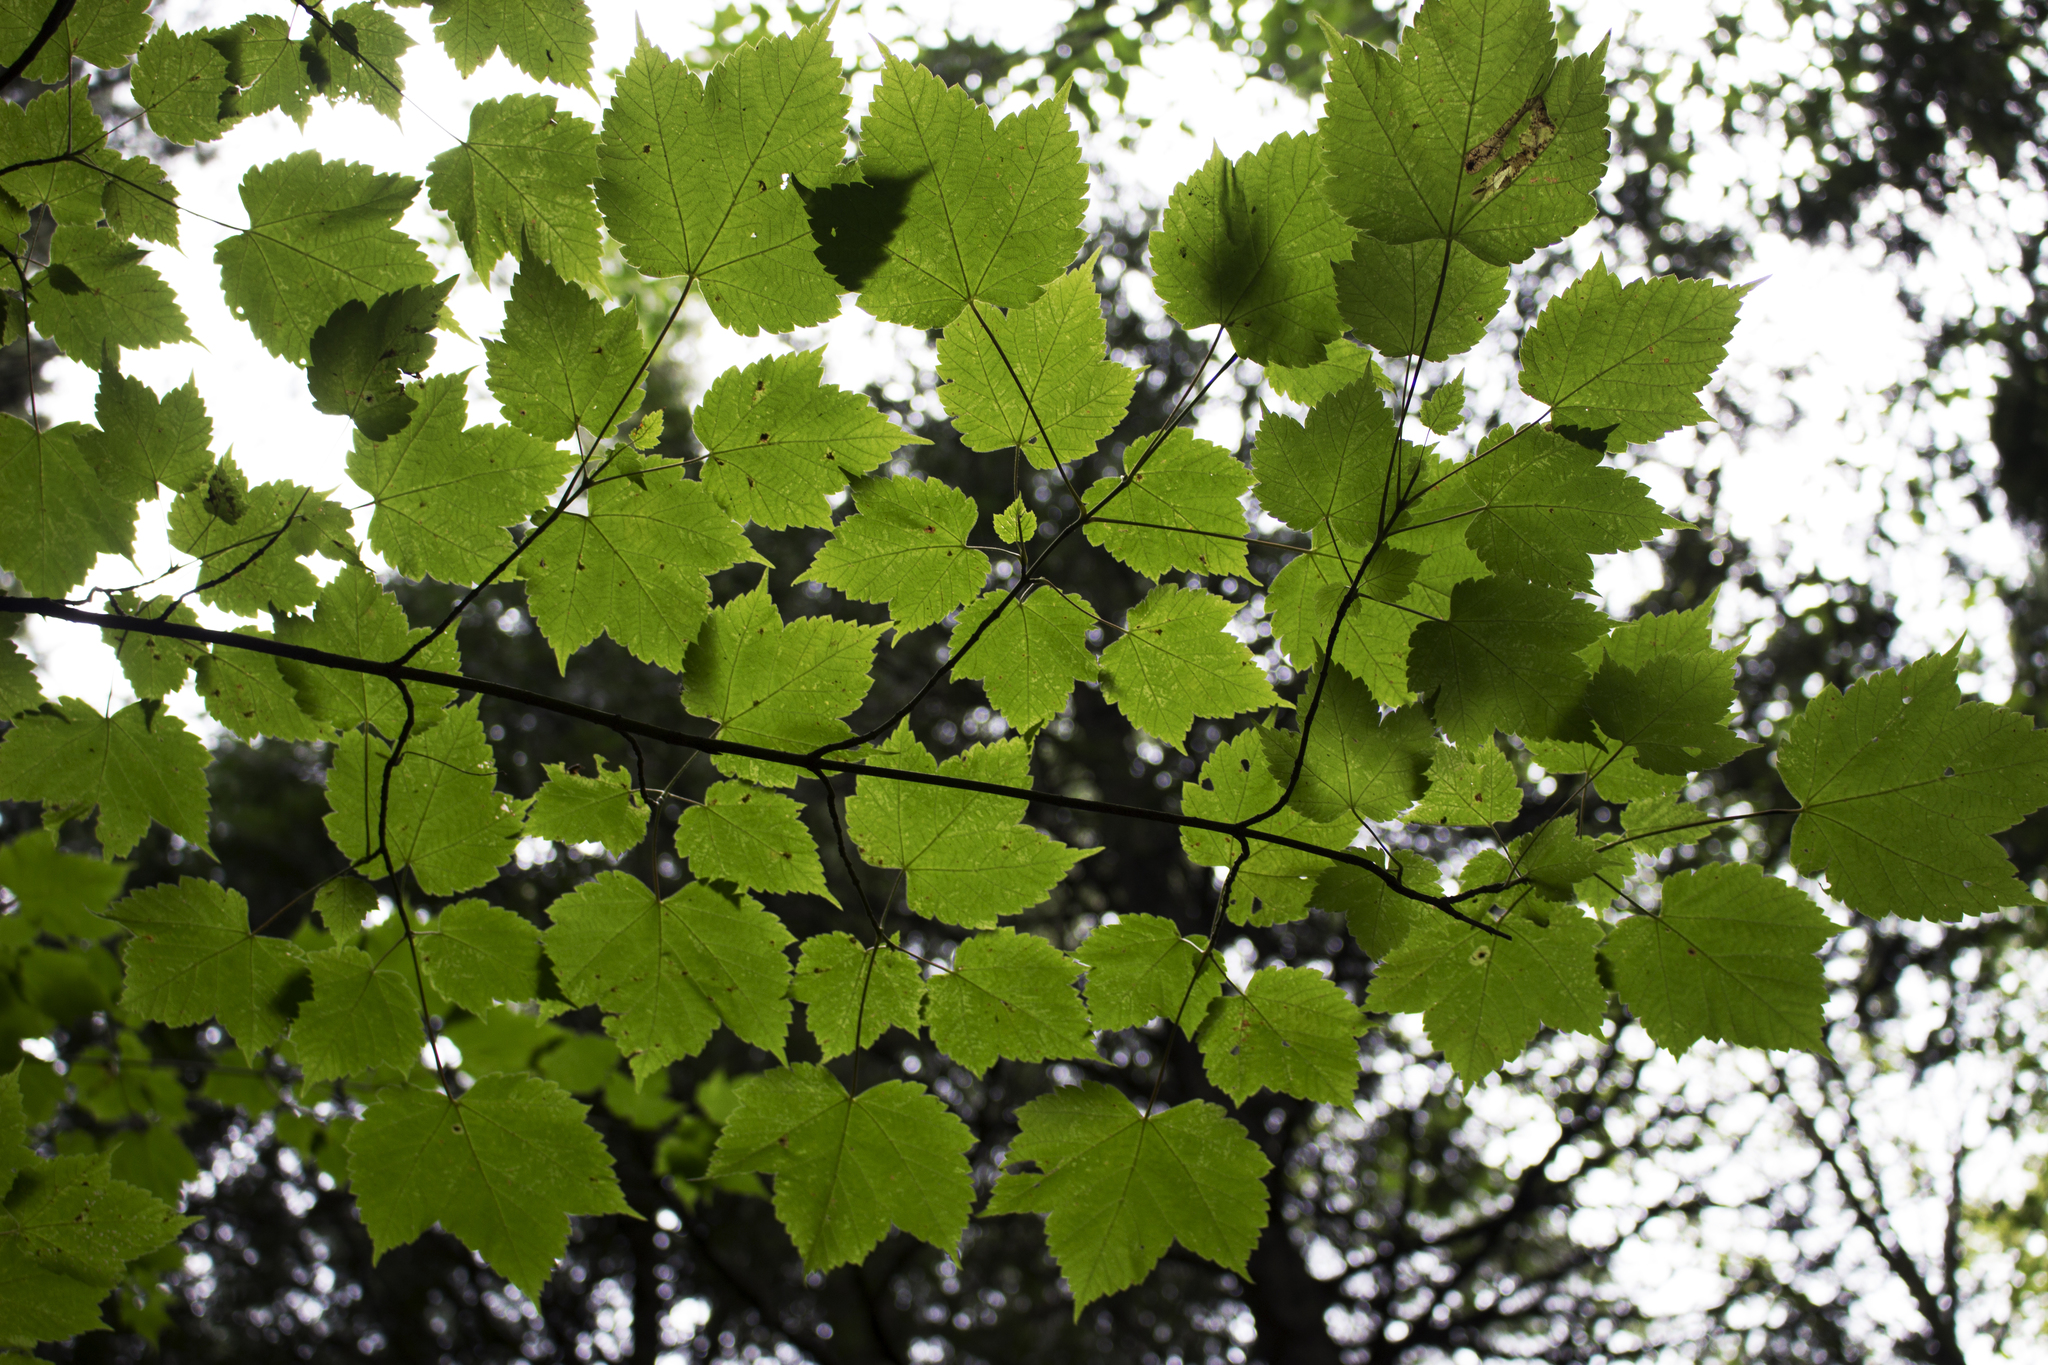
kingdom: Plantae
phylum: Tracheophyta
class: Magnoliopsida
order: Sapindales
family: Sapindaceae
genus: Acer
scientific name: Acer spicatum
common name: Mountain maple
